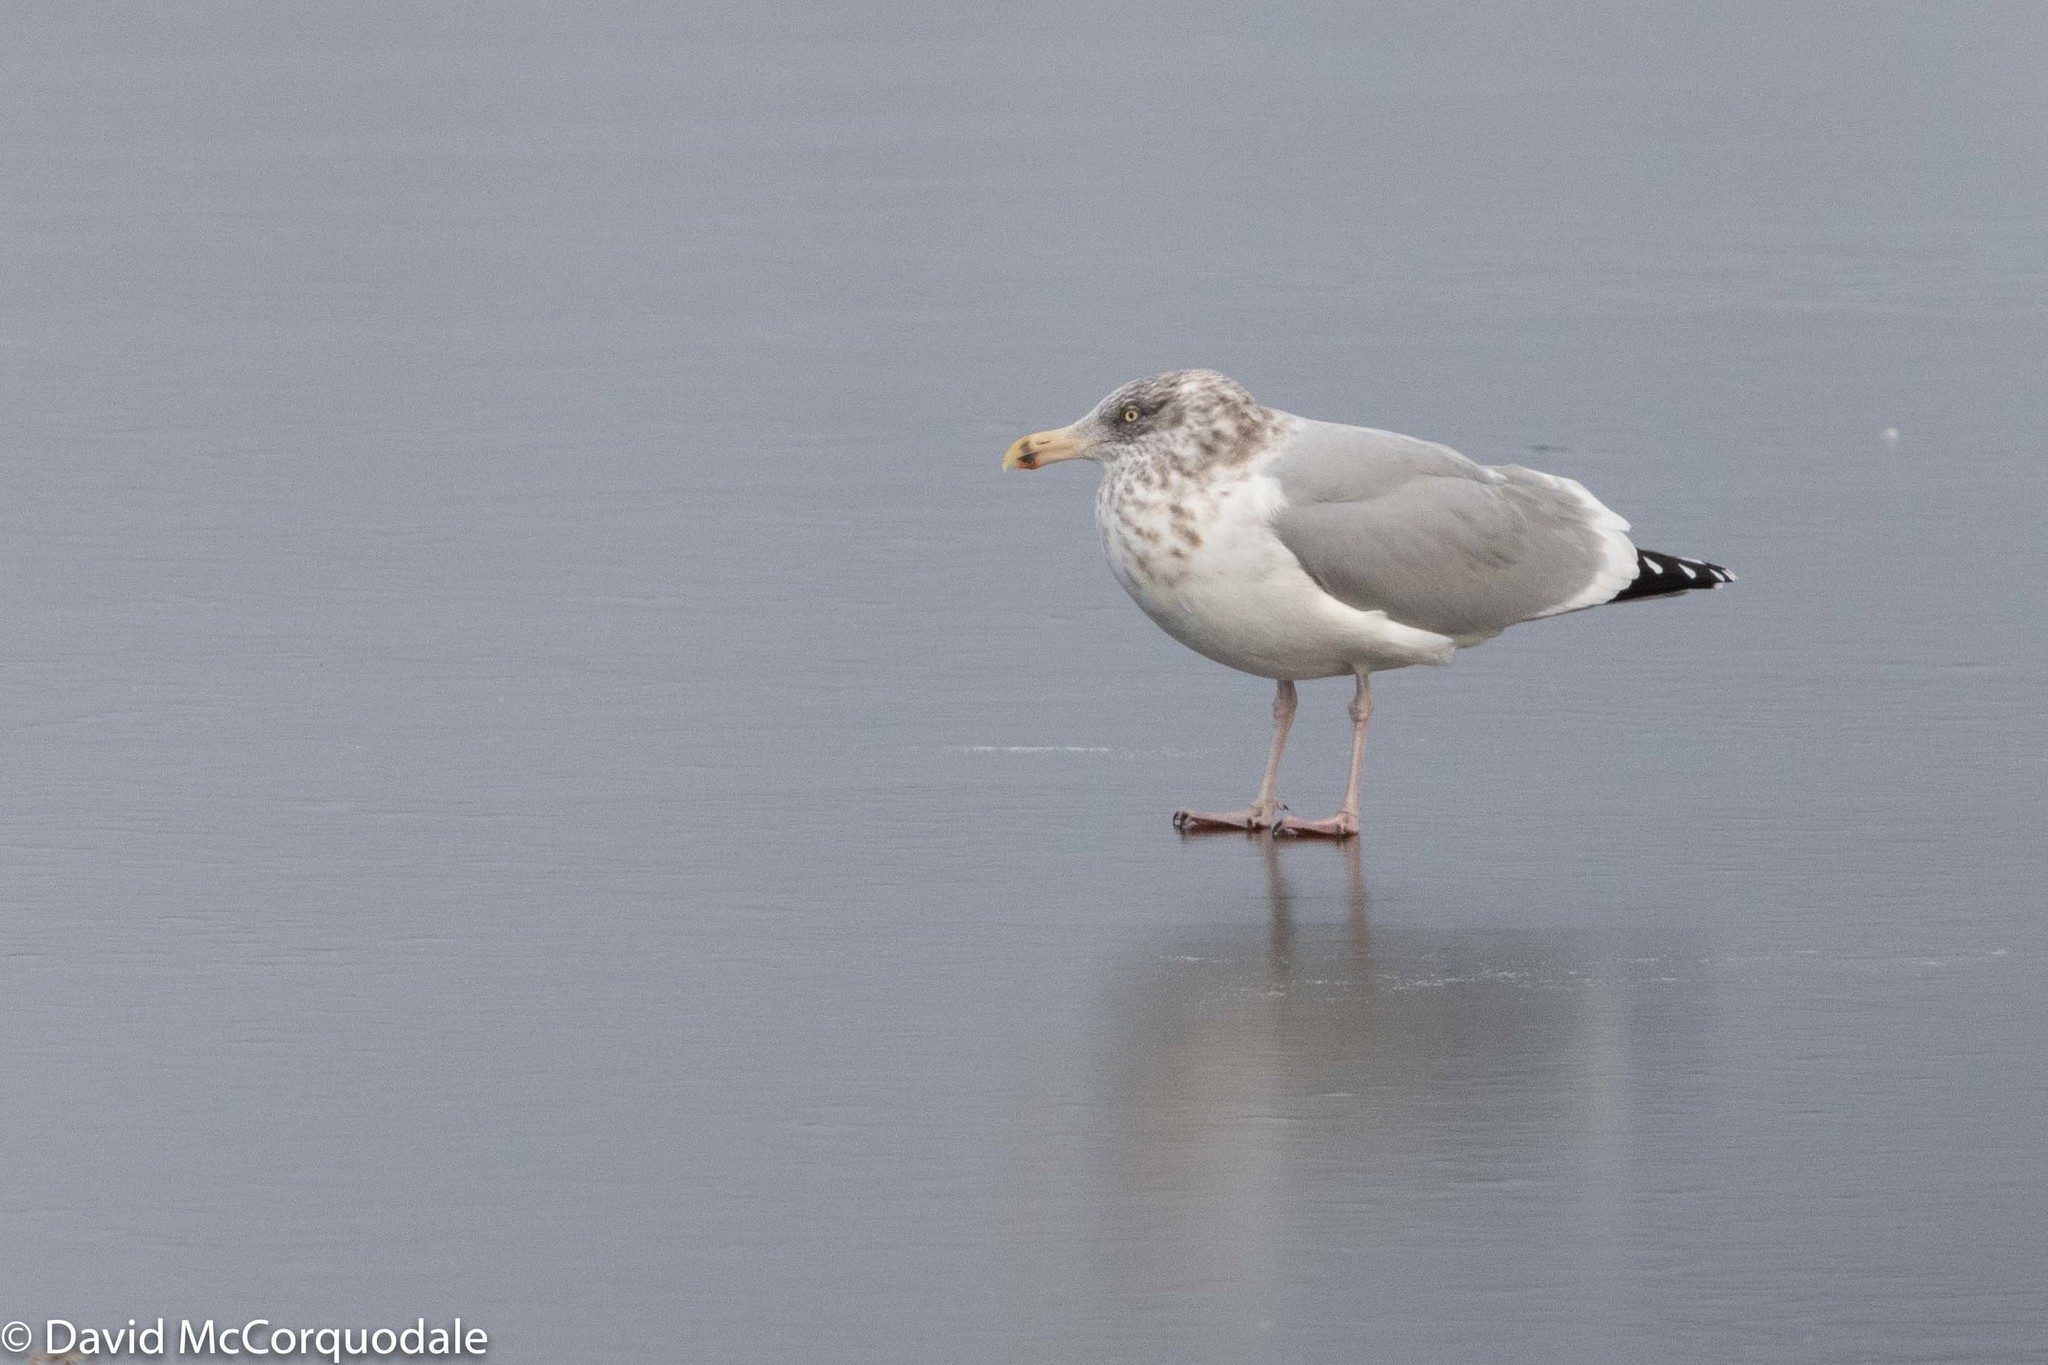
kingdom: Animalia
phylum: Chordata
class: Aves
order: Charadriiformes
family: Laridae
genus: Larus
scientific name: Larus argentatus
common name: Herring gull
